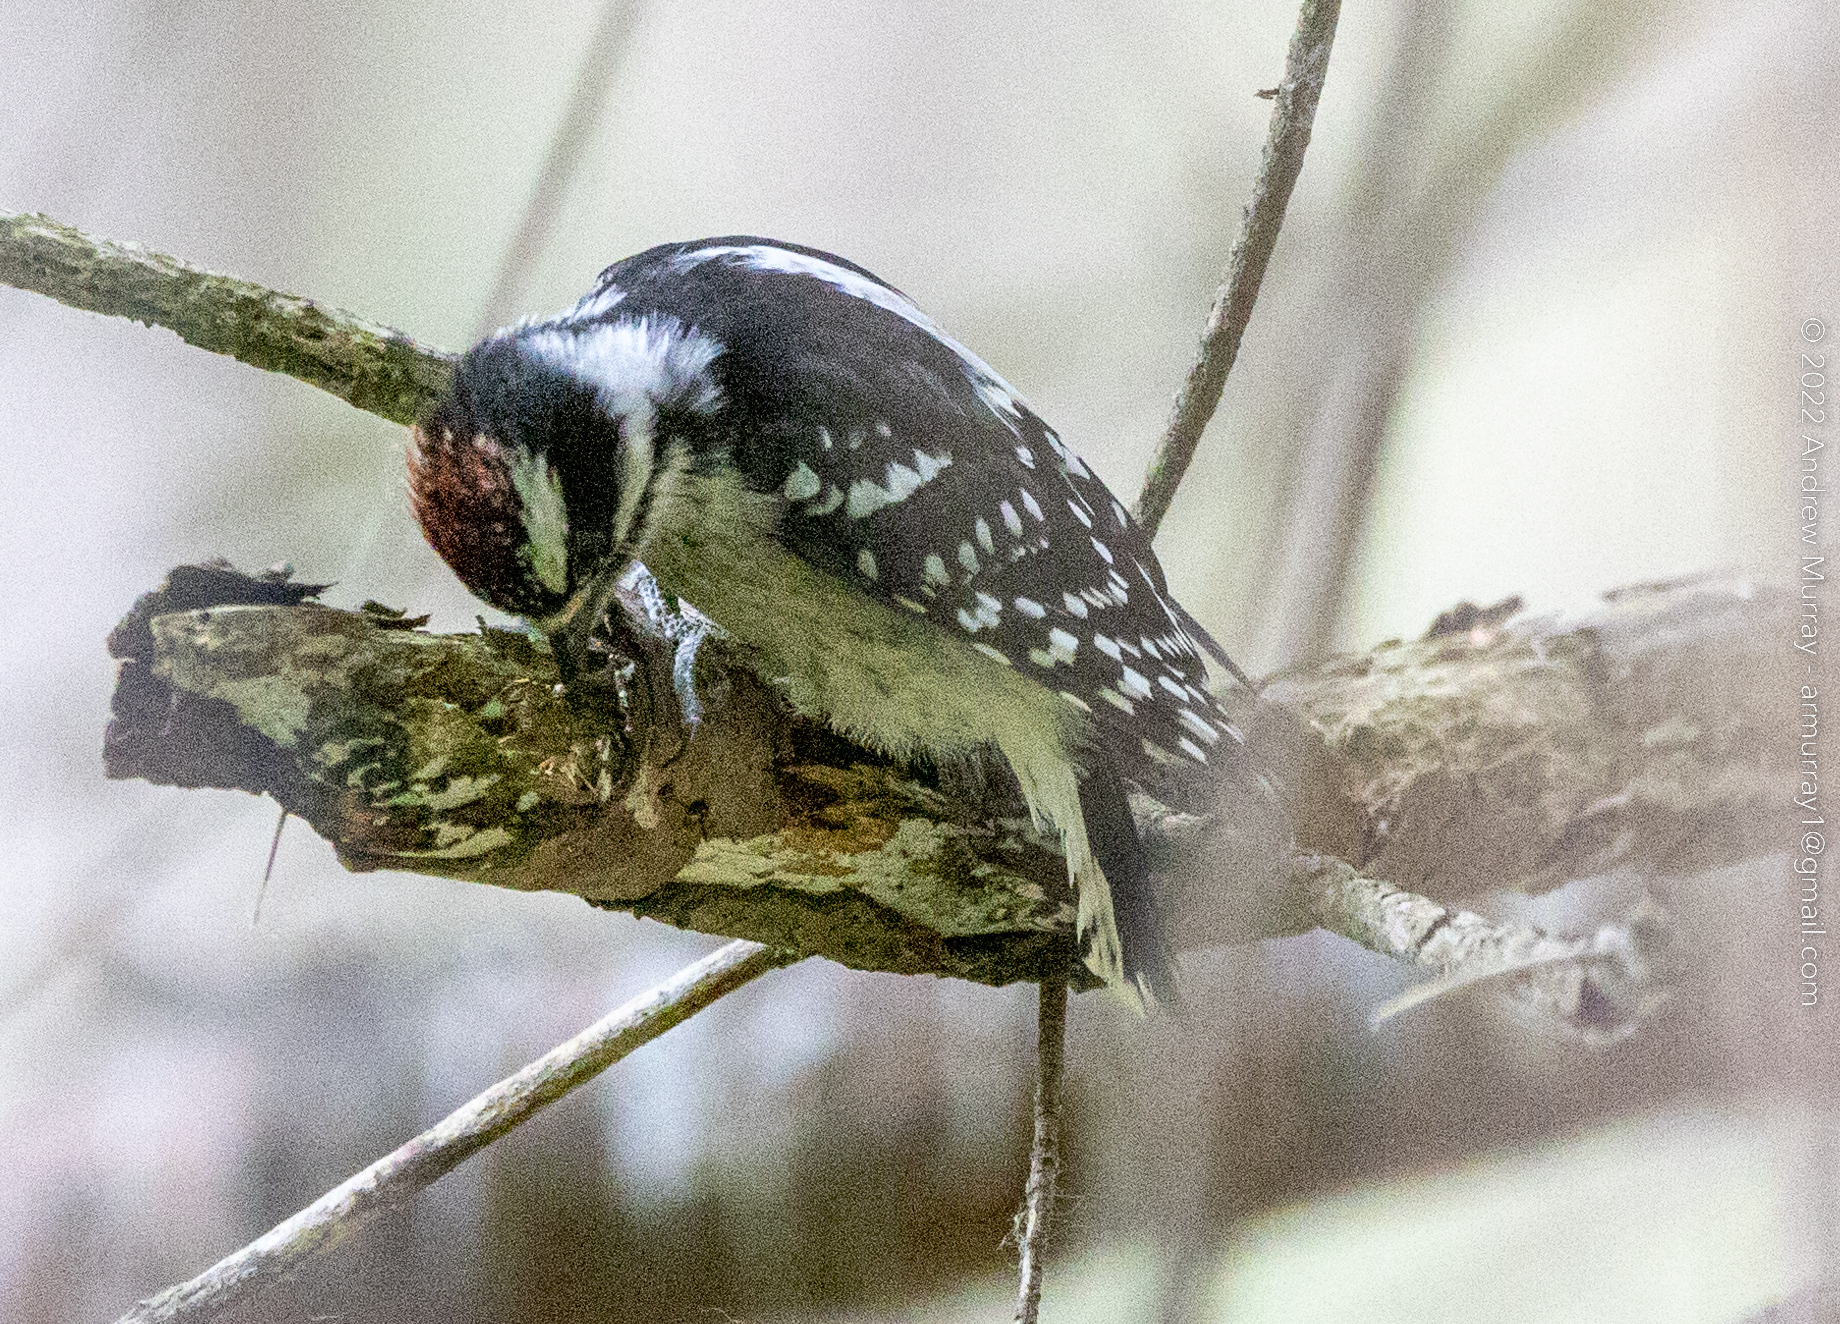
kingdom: Animalia
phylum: Chordata
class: Aves
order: Piciformes
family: Picidae
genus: Dryobates
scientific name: Dryobates pubescens
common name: Downy woodpecker
